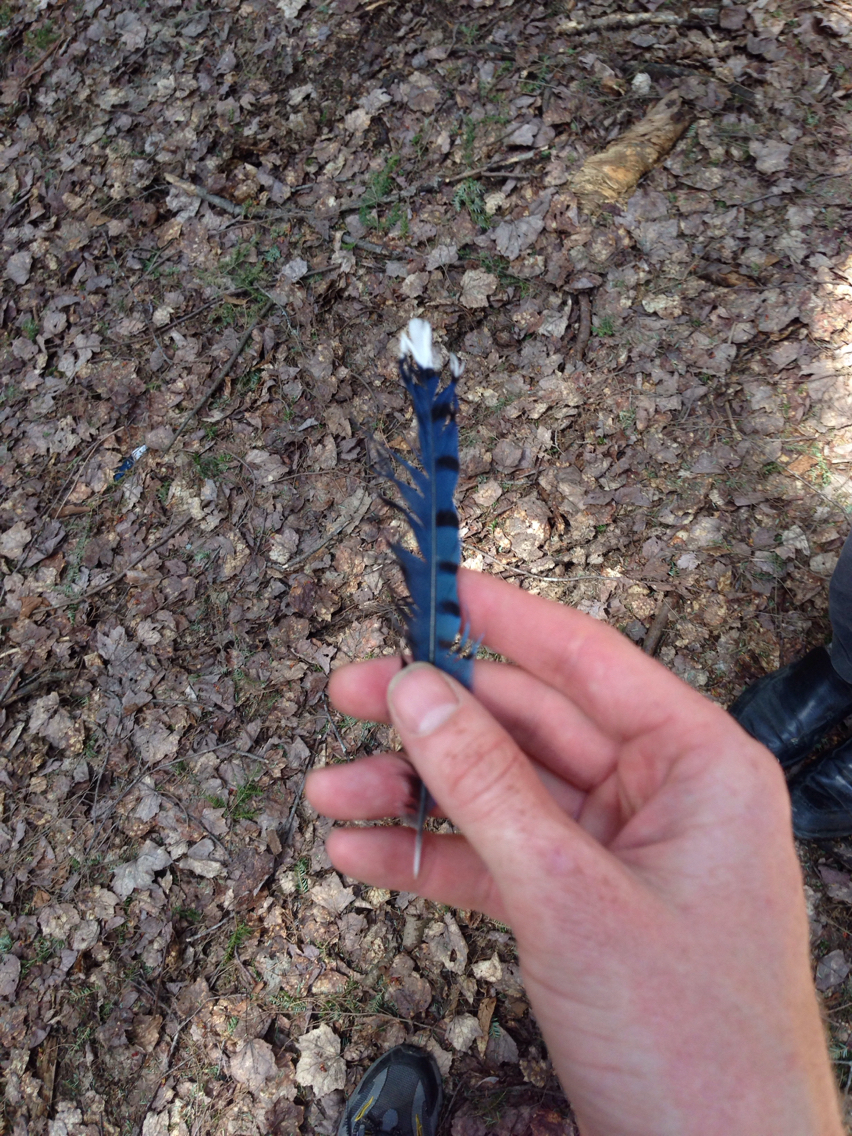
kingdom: Animalia
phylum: Chordata
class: Aves
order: Passeriformes
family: Corvidae
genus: Cyanocitta
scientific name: Cyanocitta cristata
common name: Blue jay
